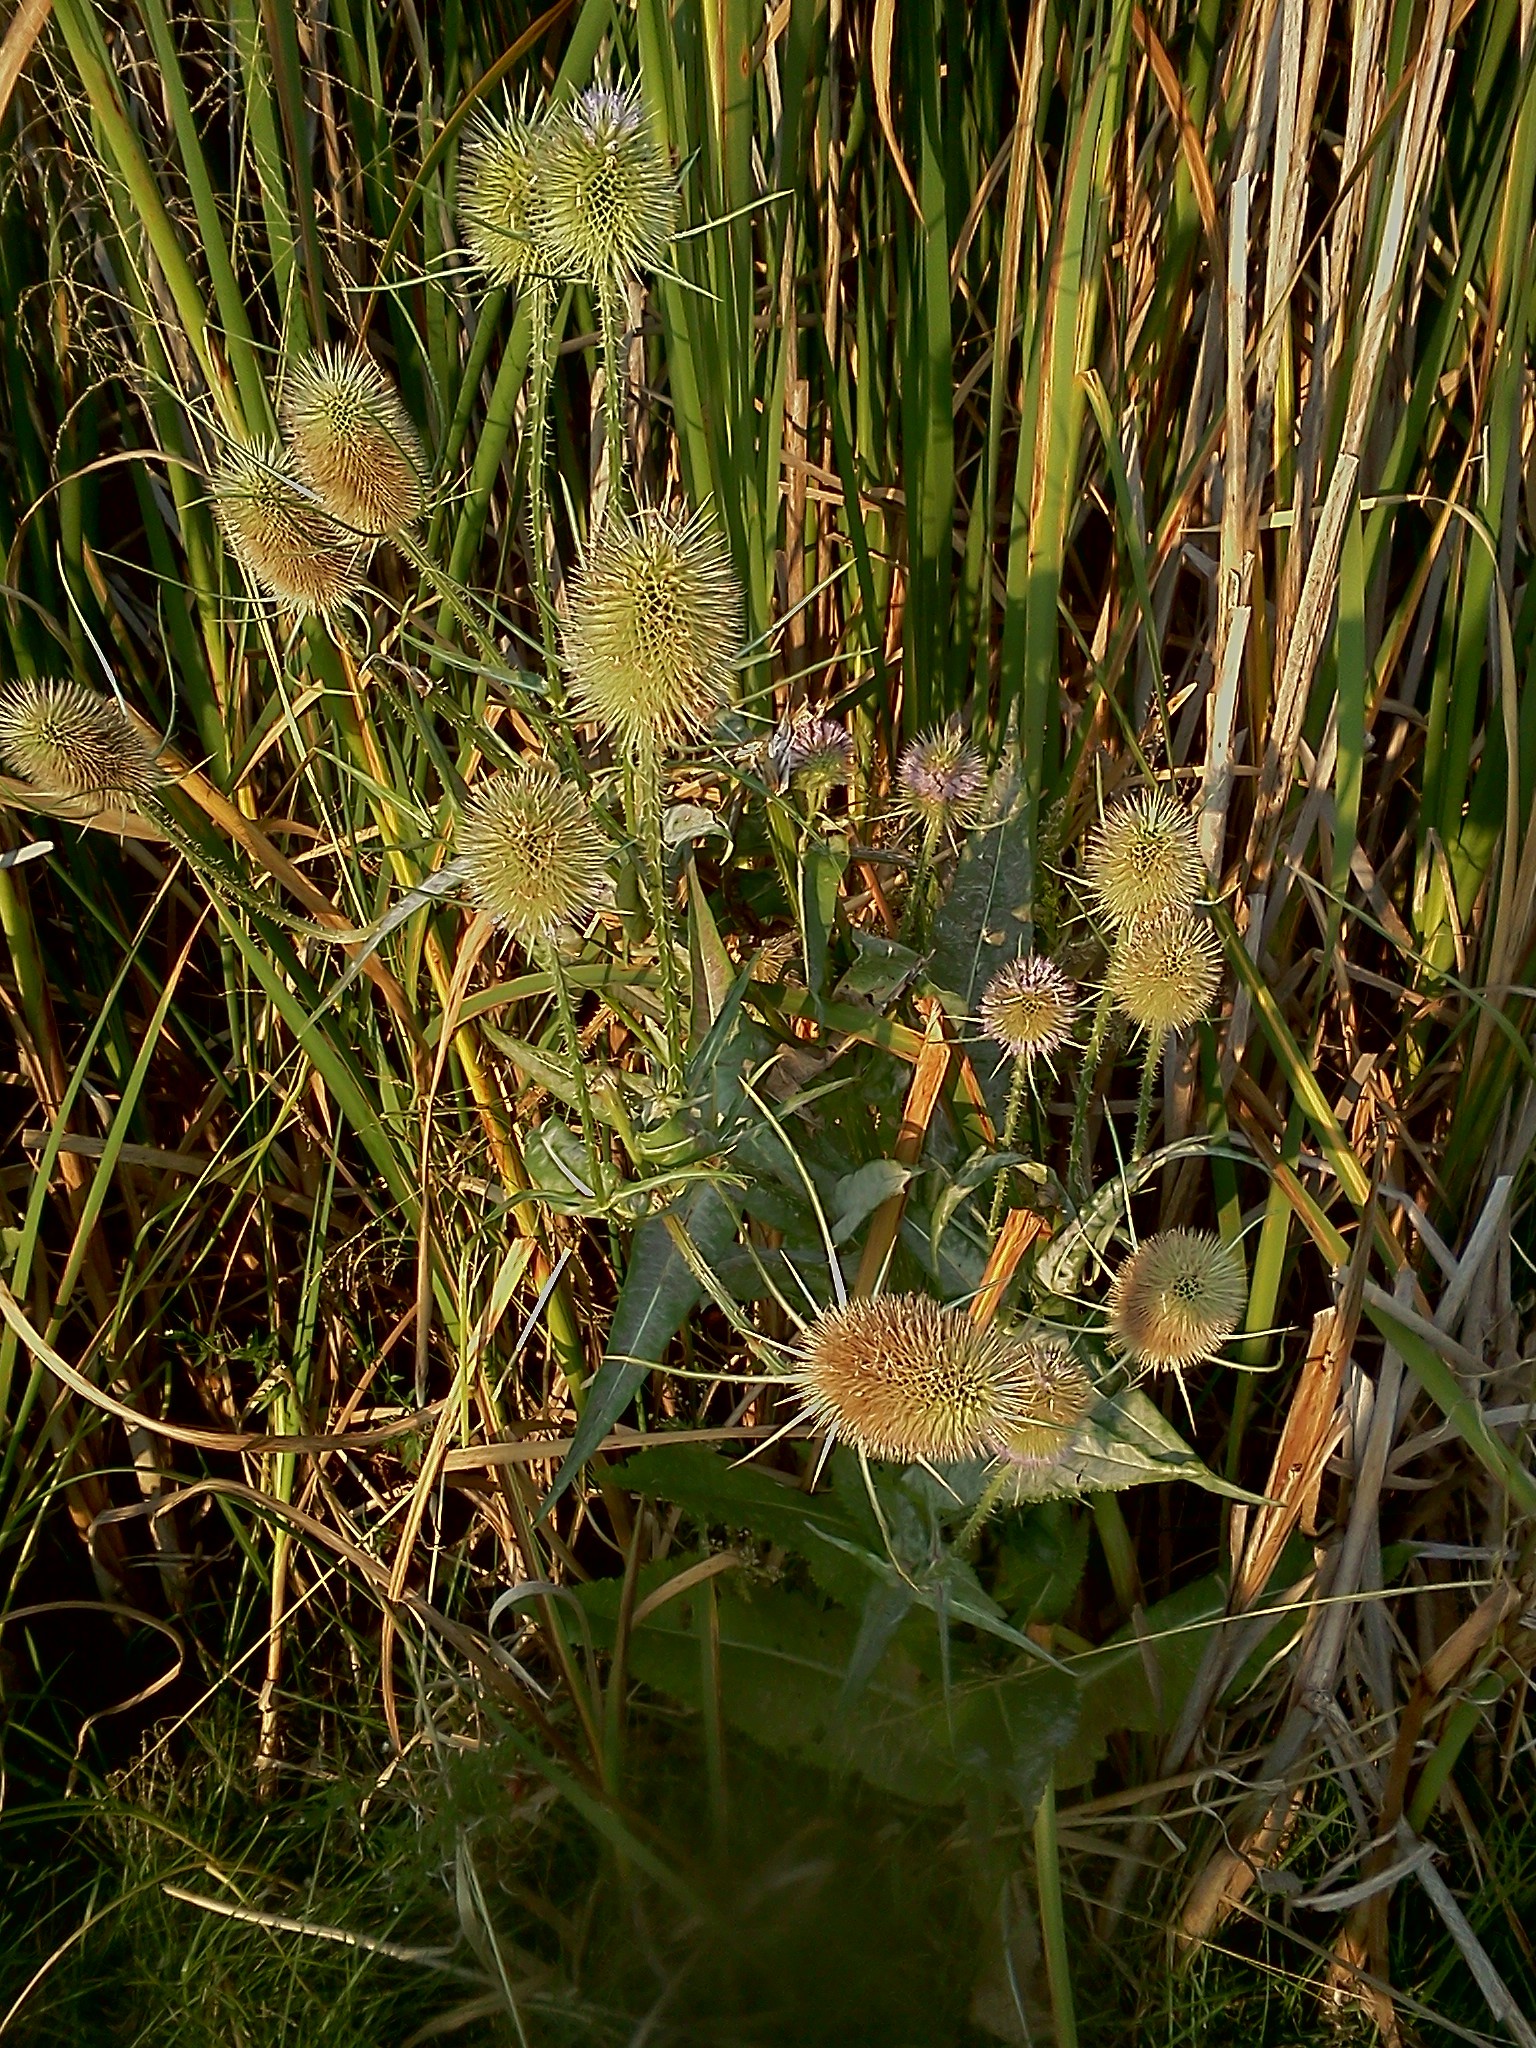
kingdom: Plantae
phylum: Tracheophyta
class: Magnoliopsida
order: Dipsacales
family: Caprifoliaceae
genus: Dipsacus
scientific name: Dipsacus fullonum
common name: Teasel
